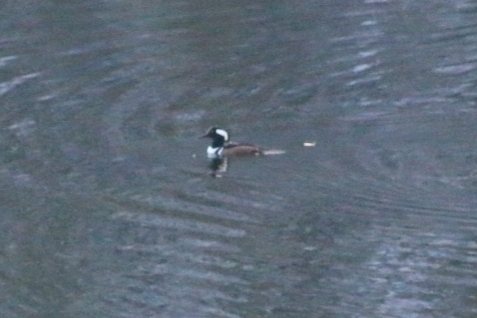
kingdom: Animalia
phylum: Chordata
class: Aves
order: Anseriformes
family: Anatidae
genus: Lophodytes
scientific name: Lophodytes cucullatus
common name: Hooded merganser
